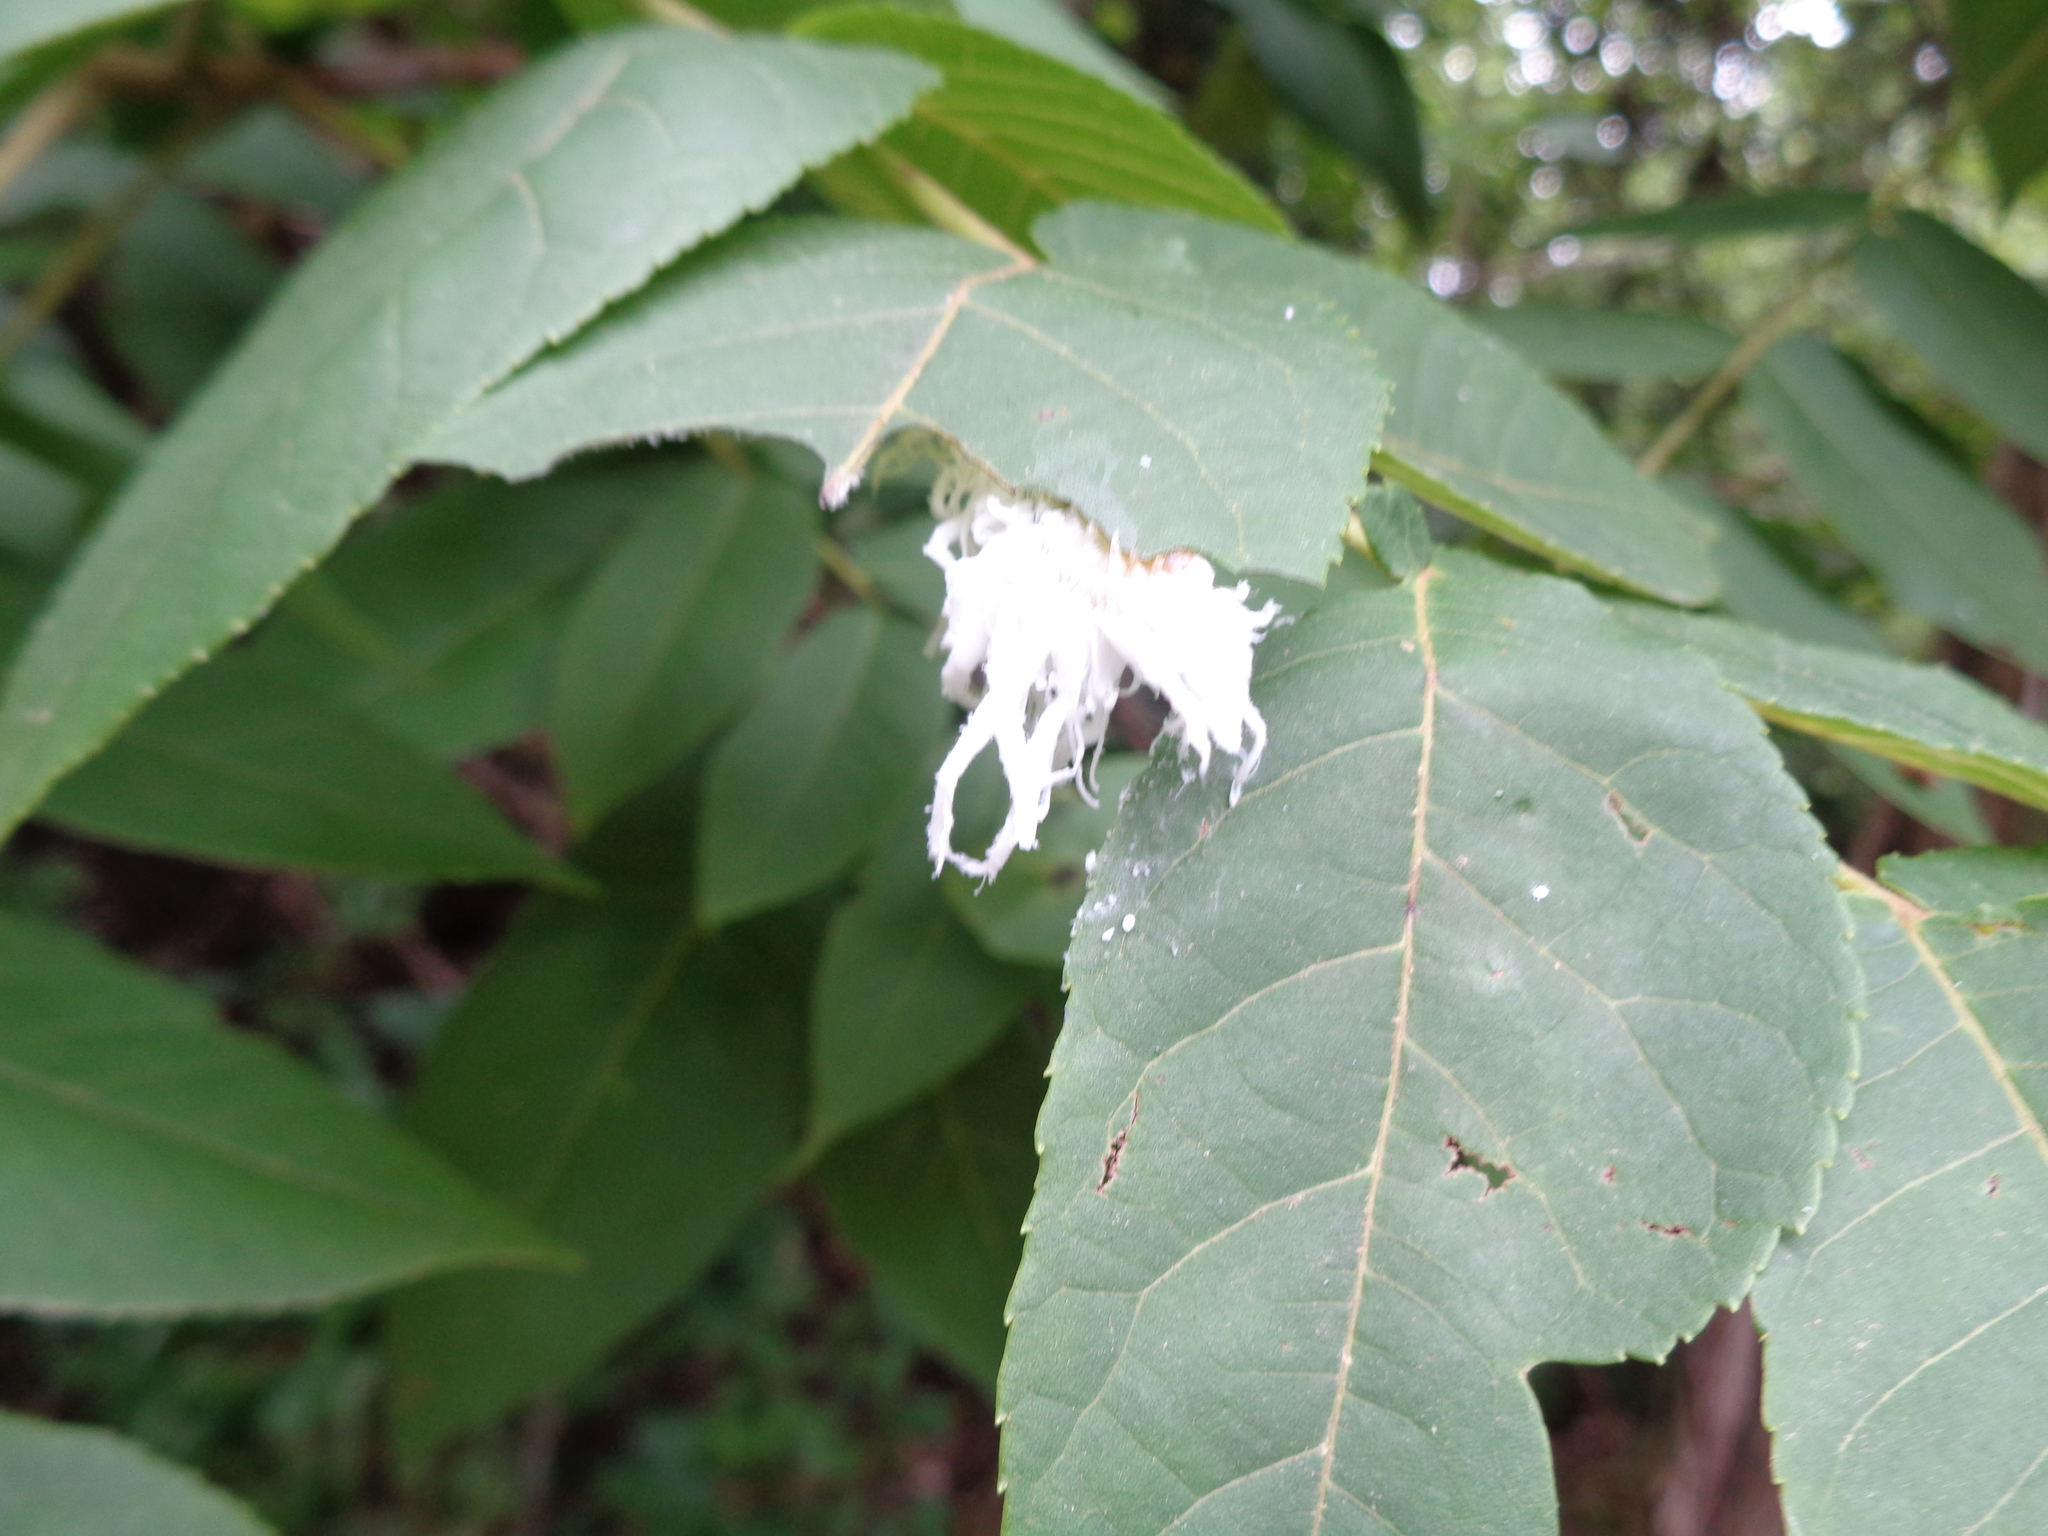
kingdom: Animalia
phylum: Arthropoda
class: Insecta
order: Hymenoptera
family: Tenthredinidae
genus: Eriocampa
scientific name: Eriocampa juglandis
